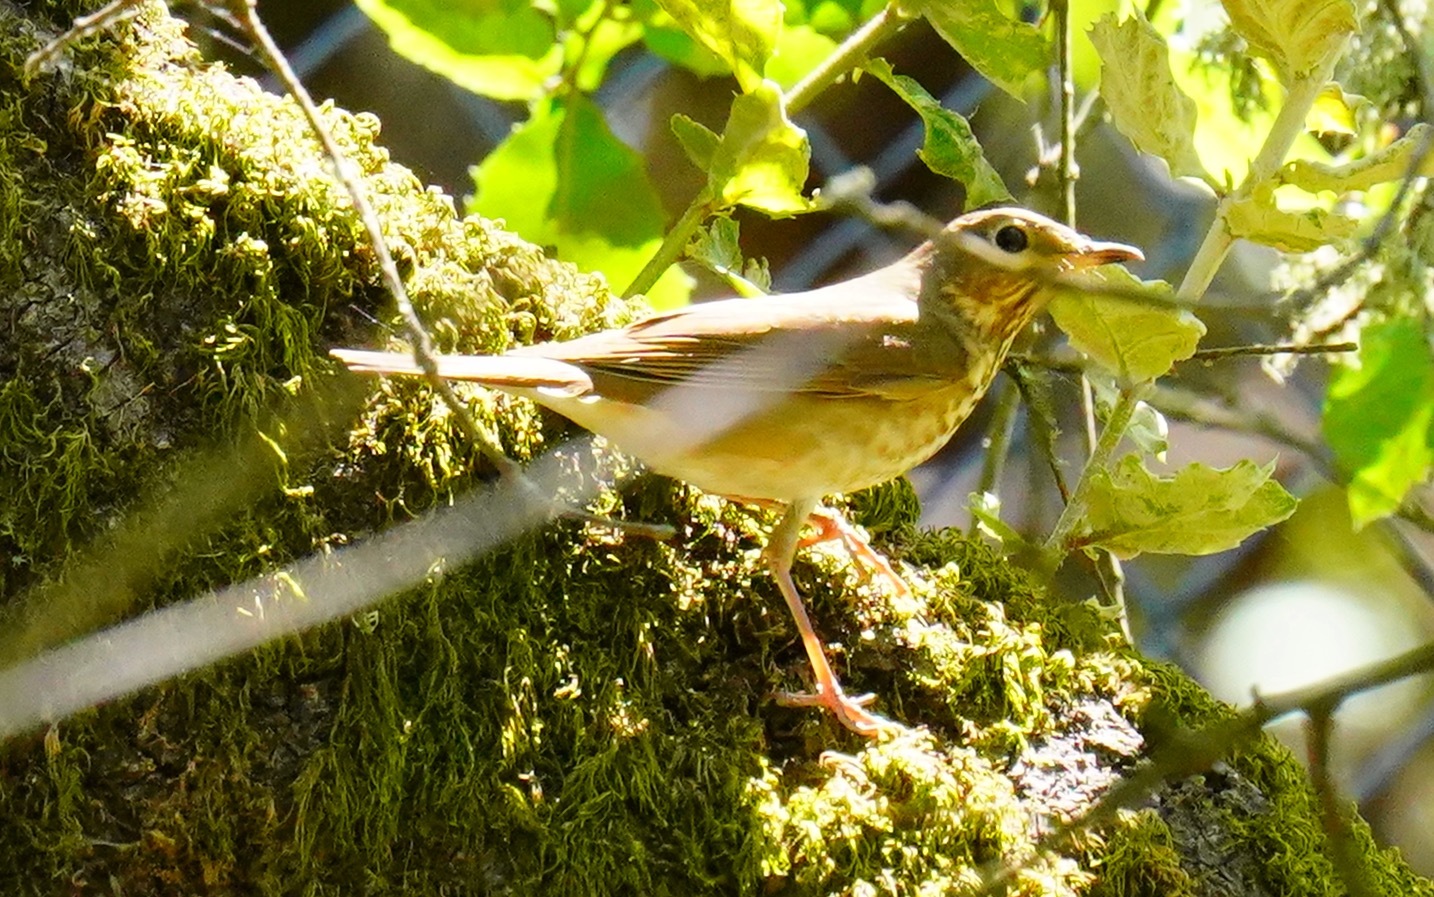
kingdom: Animalia
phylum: Chordata
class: Aves
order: Passeriformes
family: Turdidae
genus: Catharus
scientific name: Catharus ustulatus
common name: Swainson's thrush
